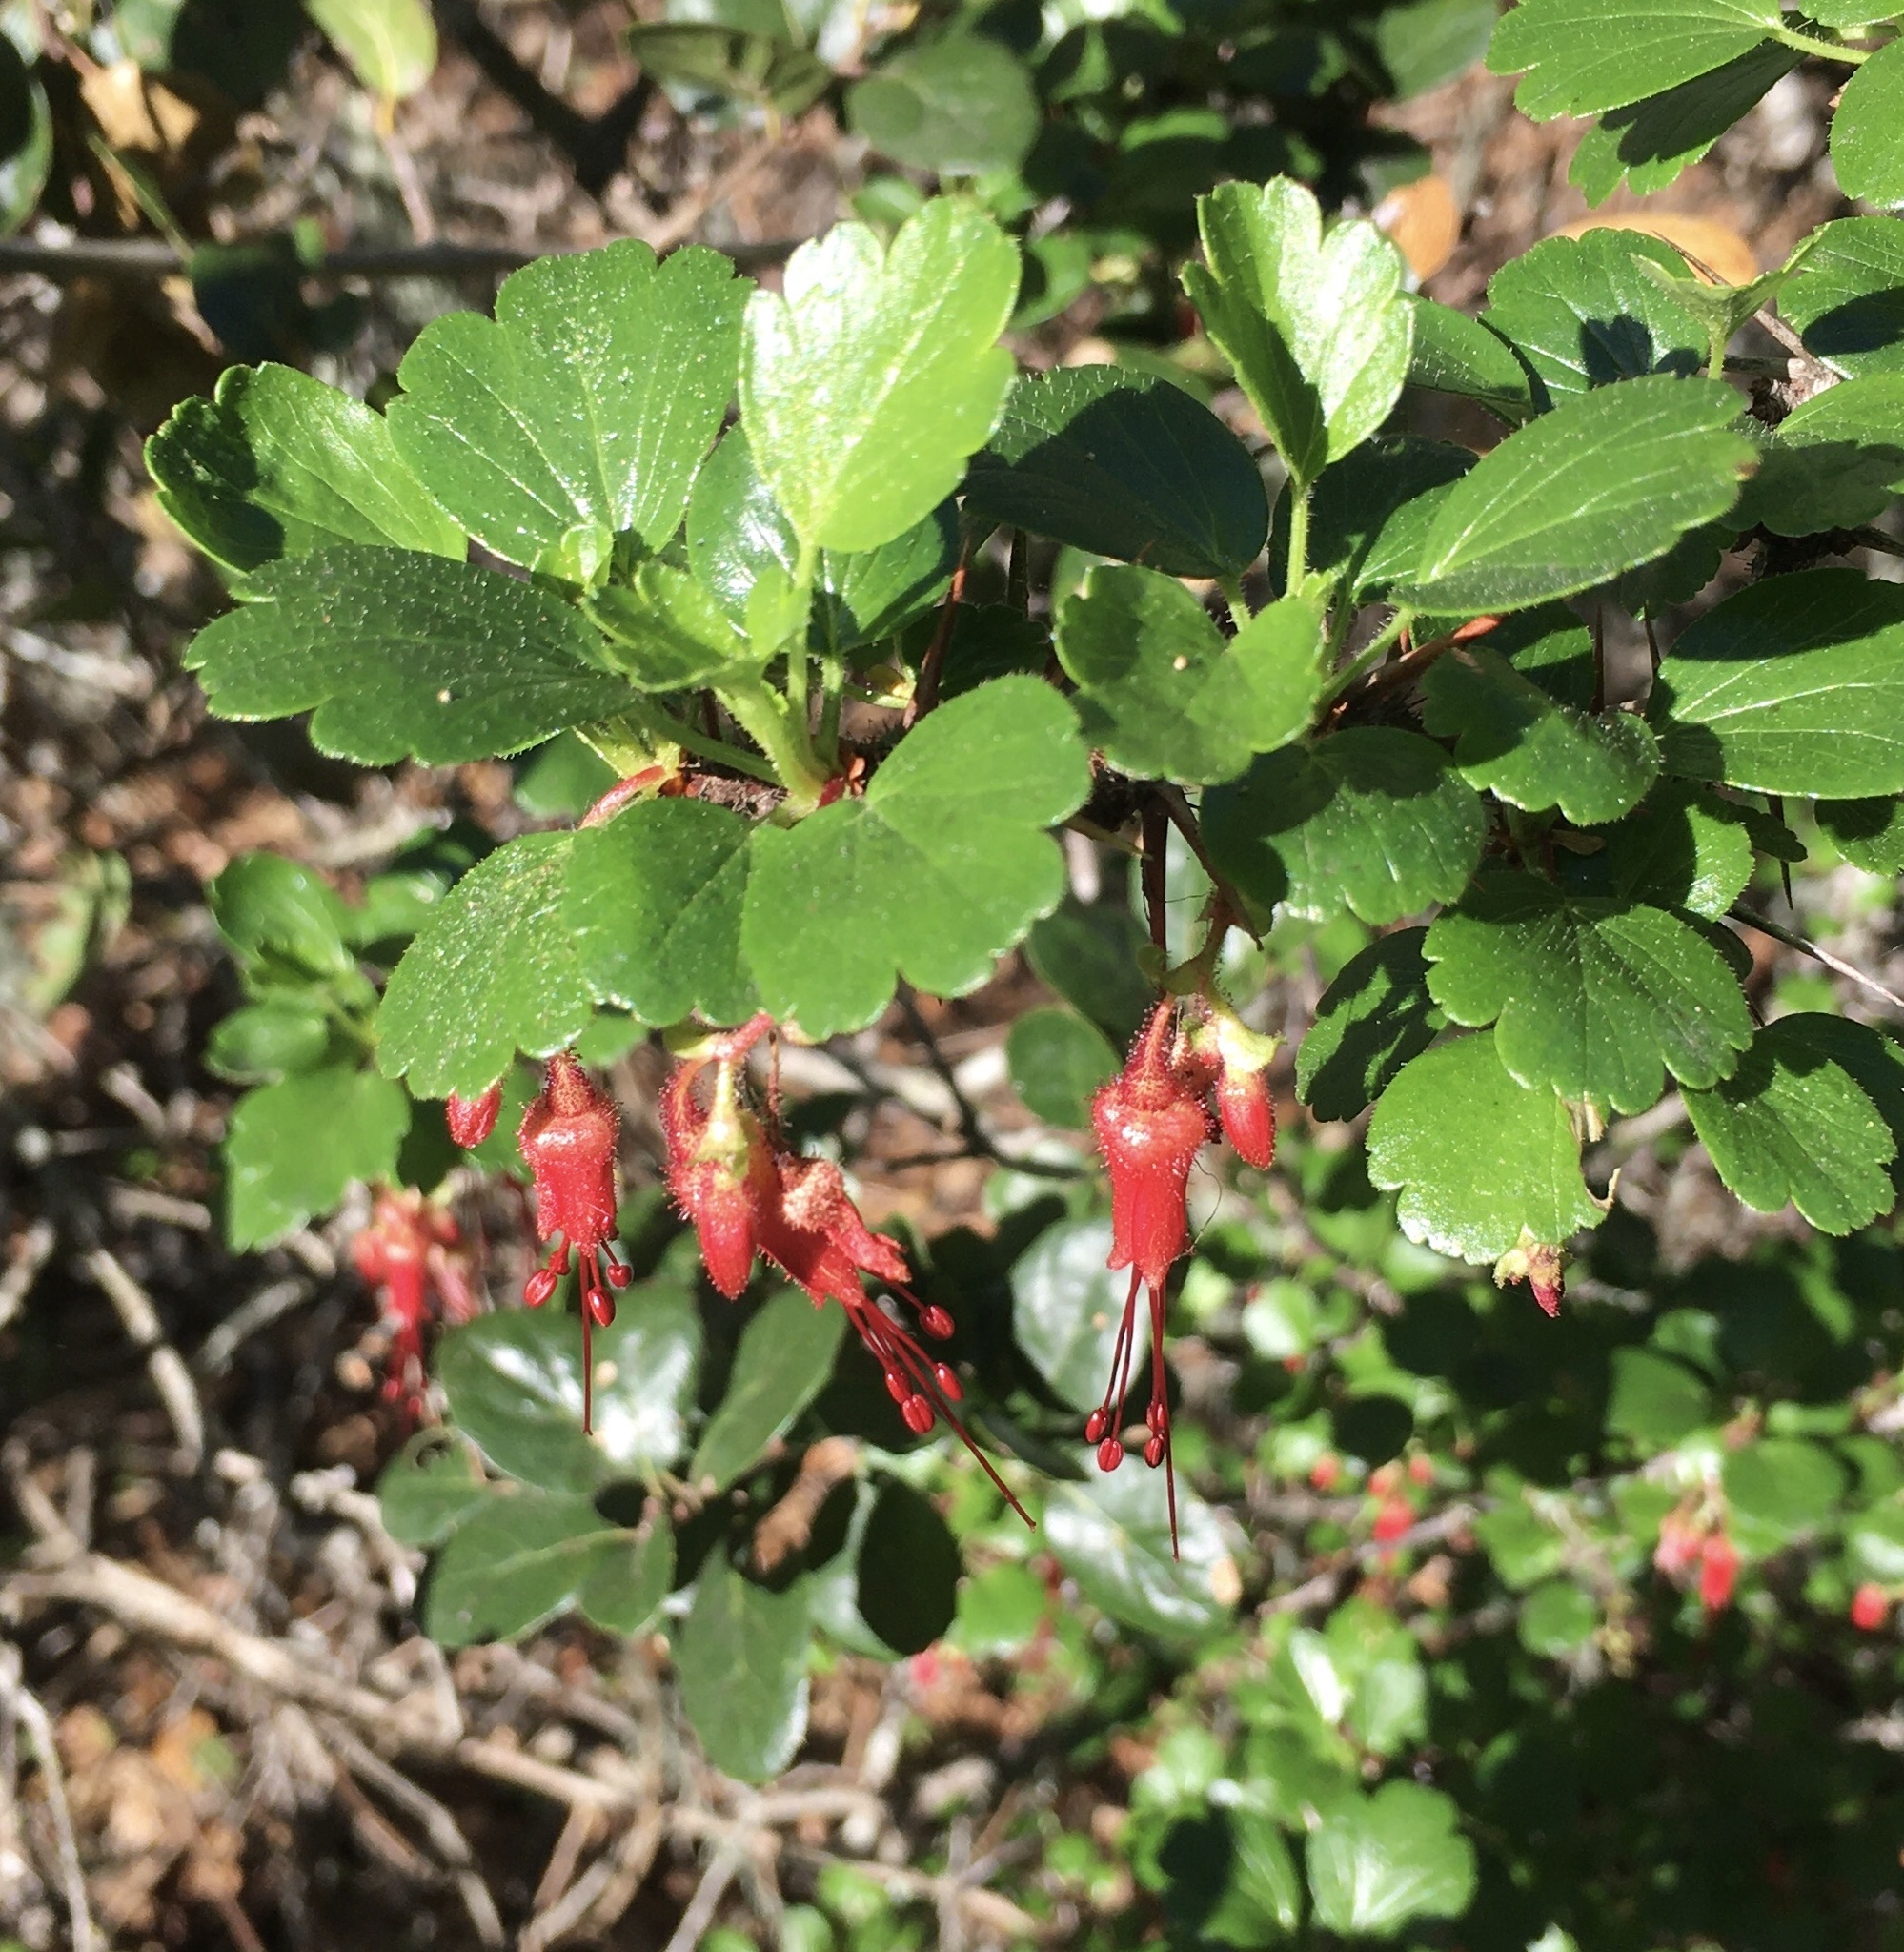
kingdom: Plantae
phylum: Tracheophyta
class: Magnoliopsida
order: Saxifragales
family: Grossulariaceae
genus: Ribes
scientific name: Ribes speciosum
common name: Fuchsia-flower gooseberry
